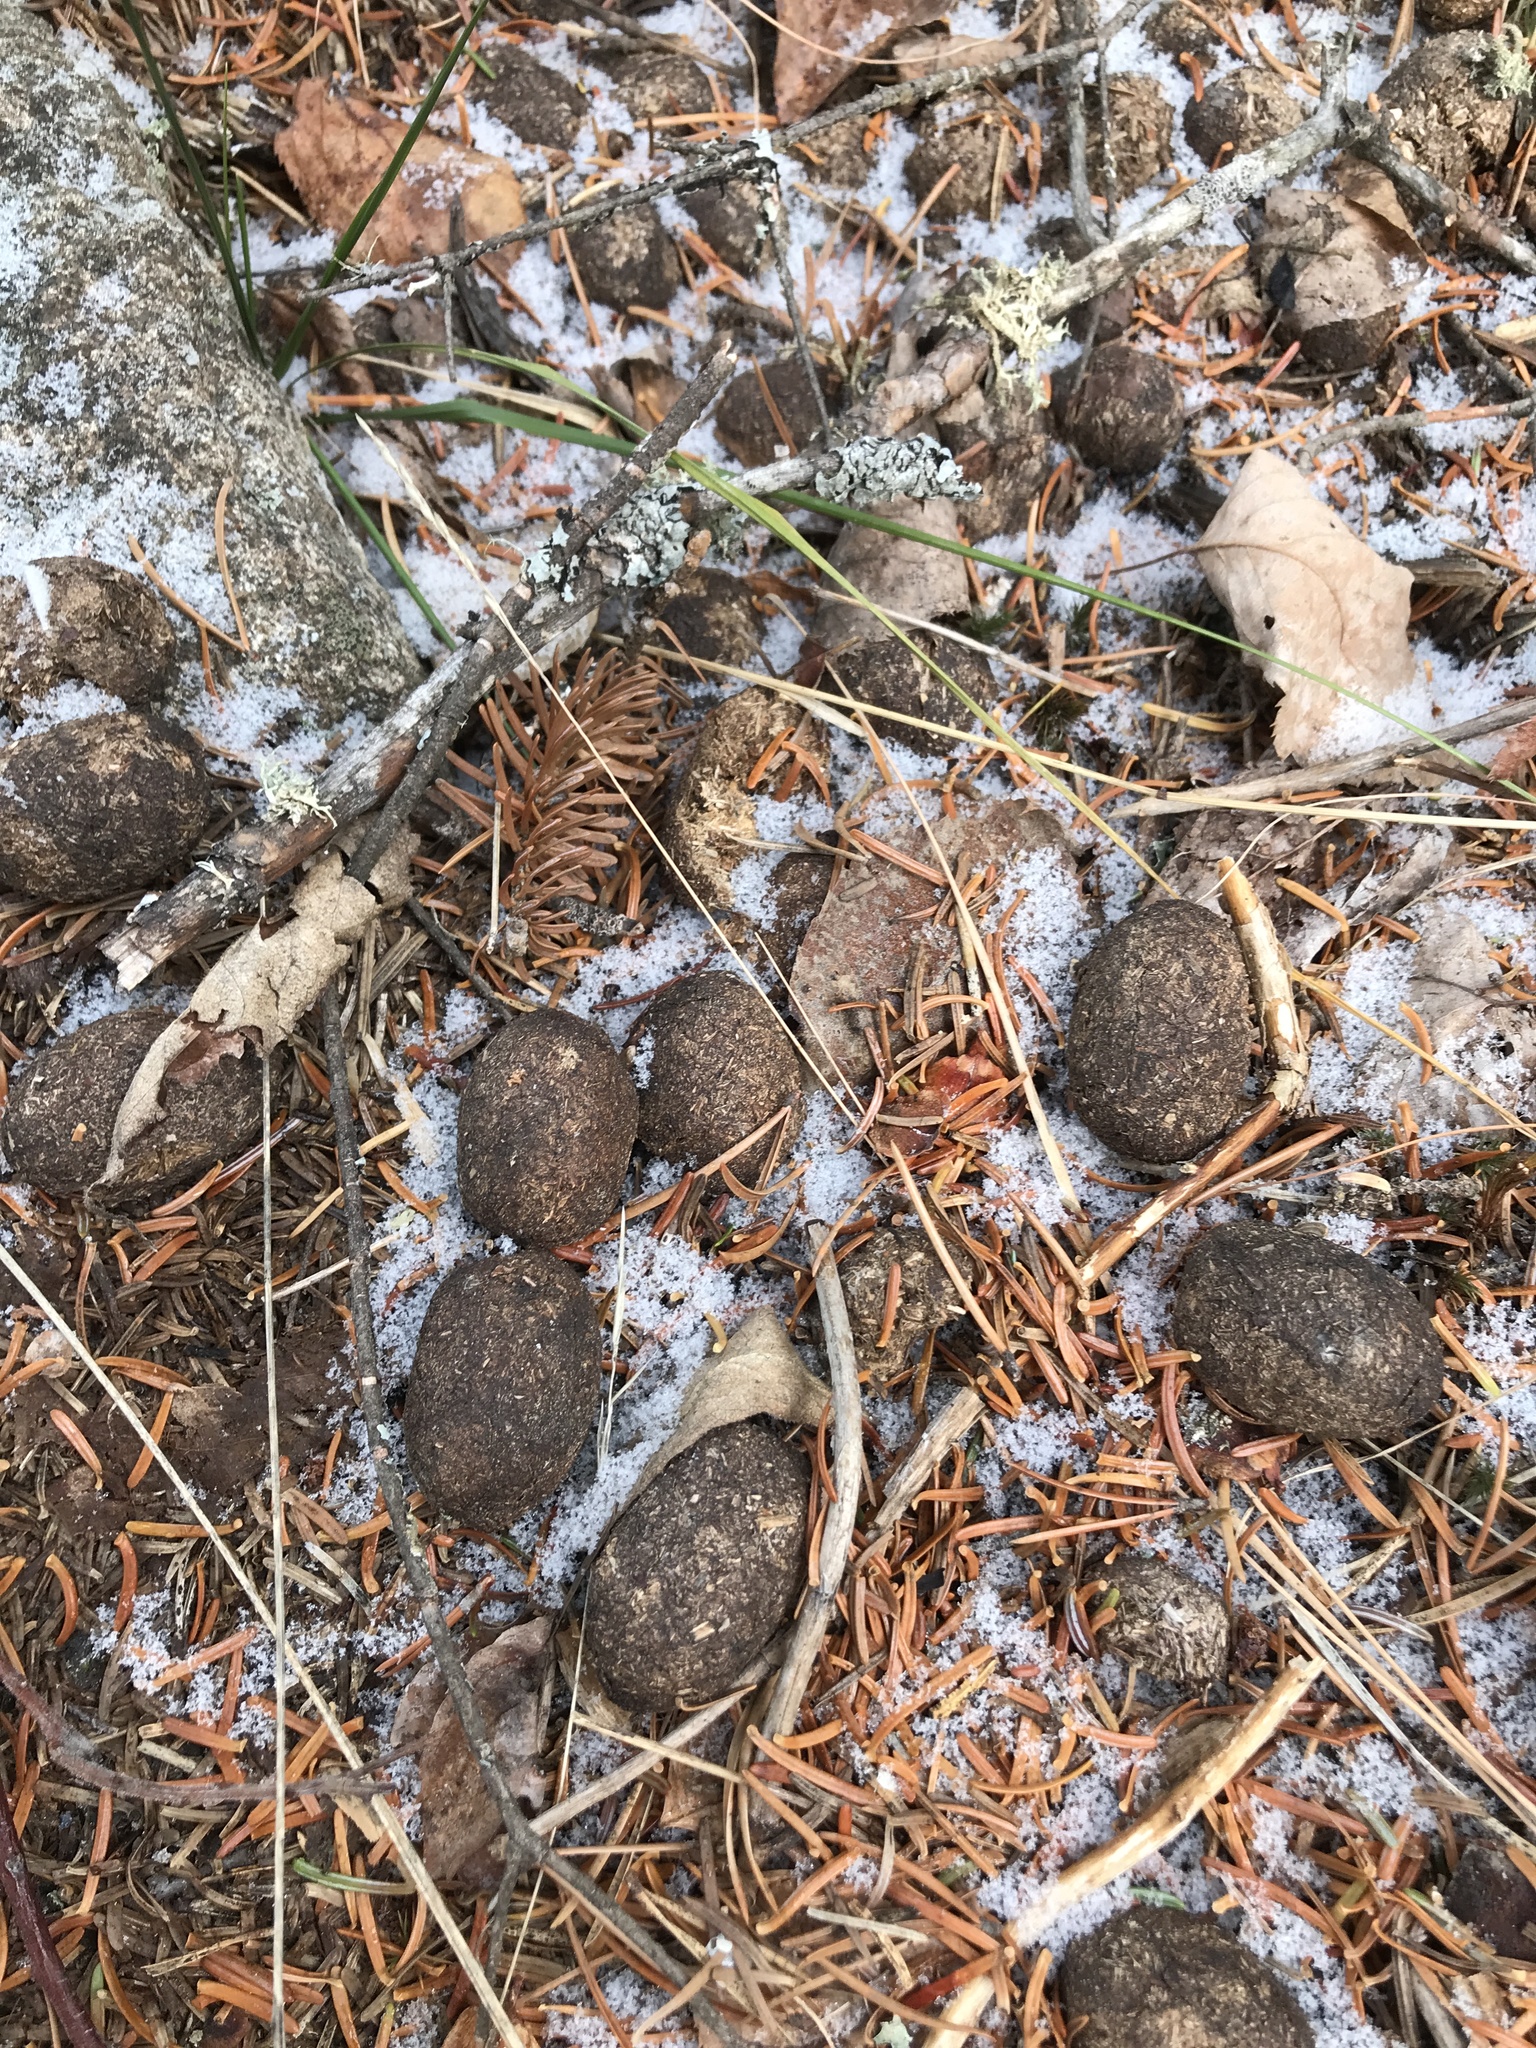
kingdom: Animalia
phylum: Chordata
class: Mammalia
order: Artiodactyla
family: Cervidae
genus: Alces
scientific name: Alces alces
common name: Moose
